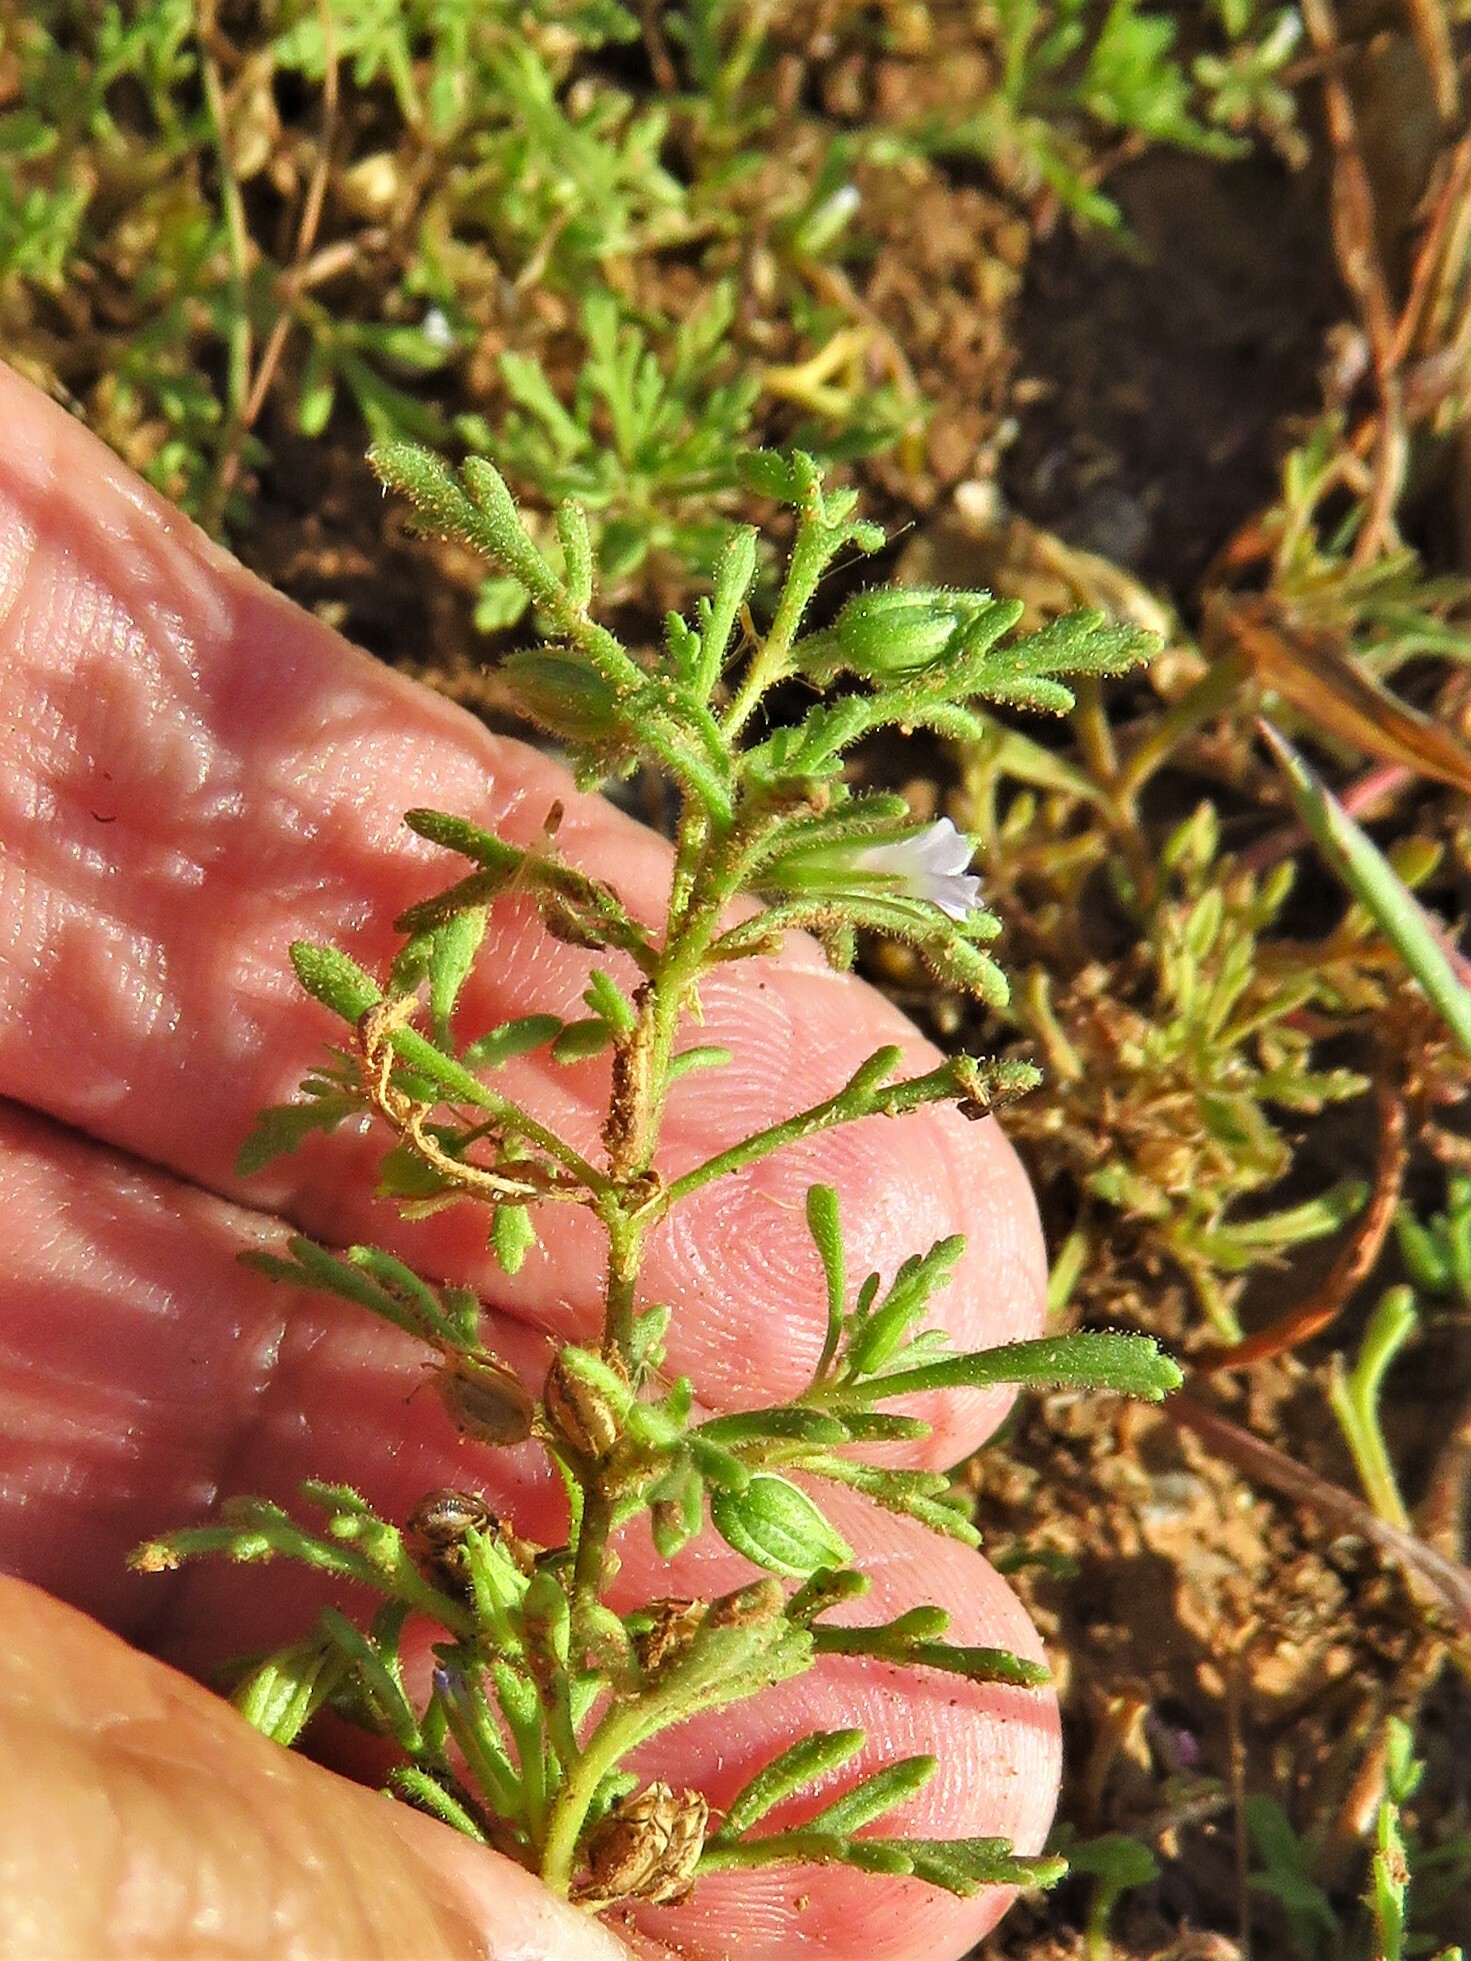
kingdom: Plantae
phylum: Tracheophyta
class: Magnoliopsida
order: Lamiales
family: Plantaginaceae
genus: Leucospora
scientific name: Leucospora multifida
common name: Narrow-leaf paleseed
